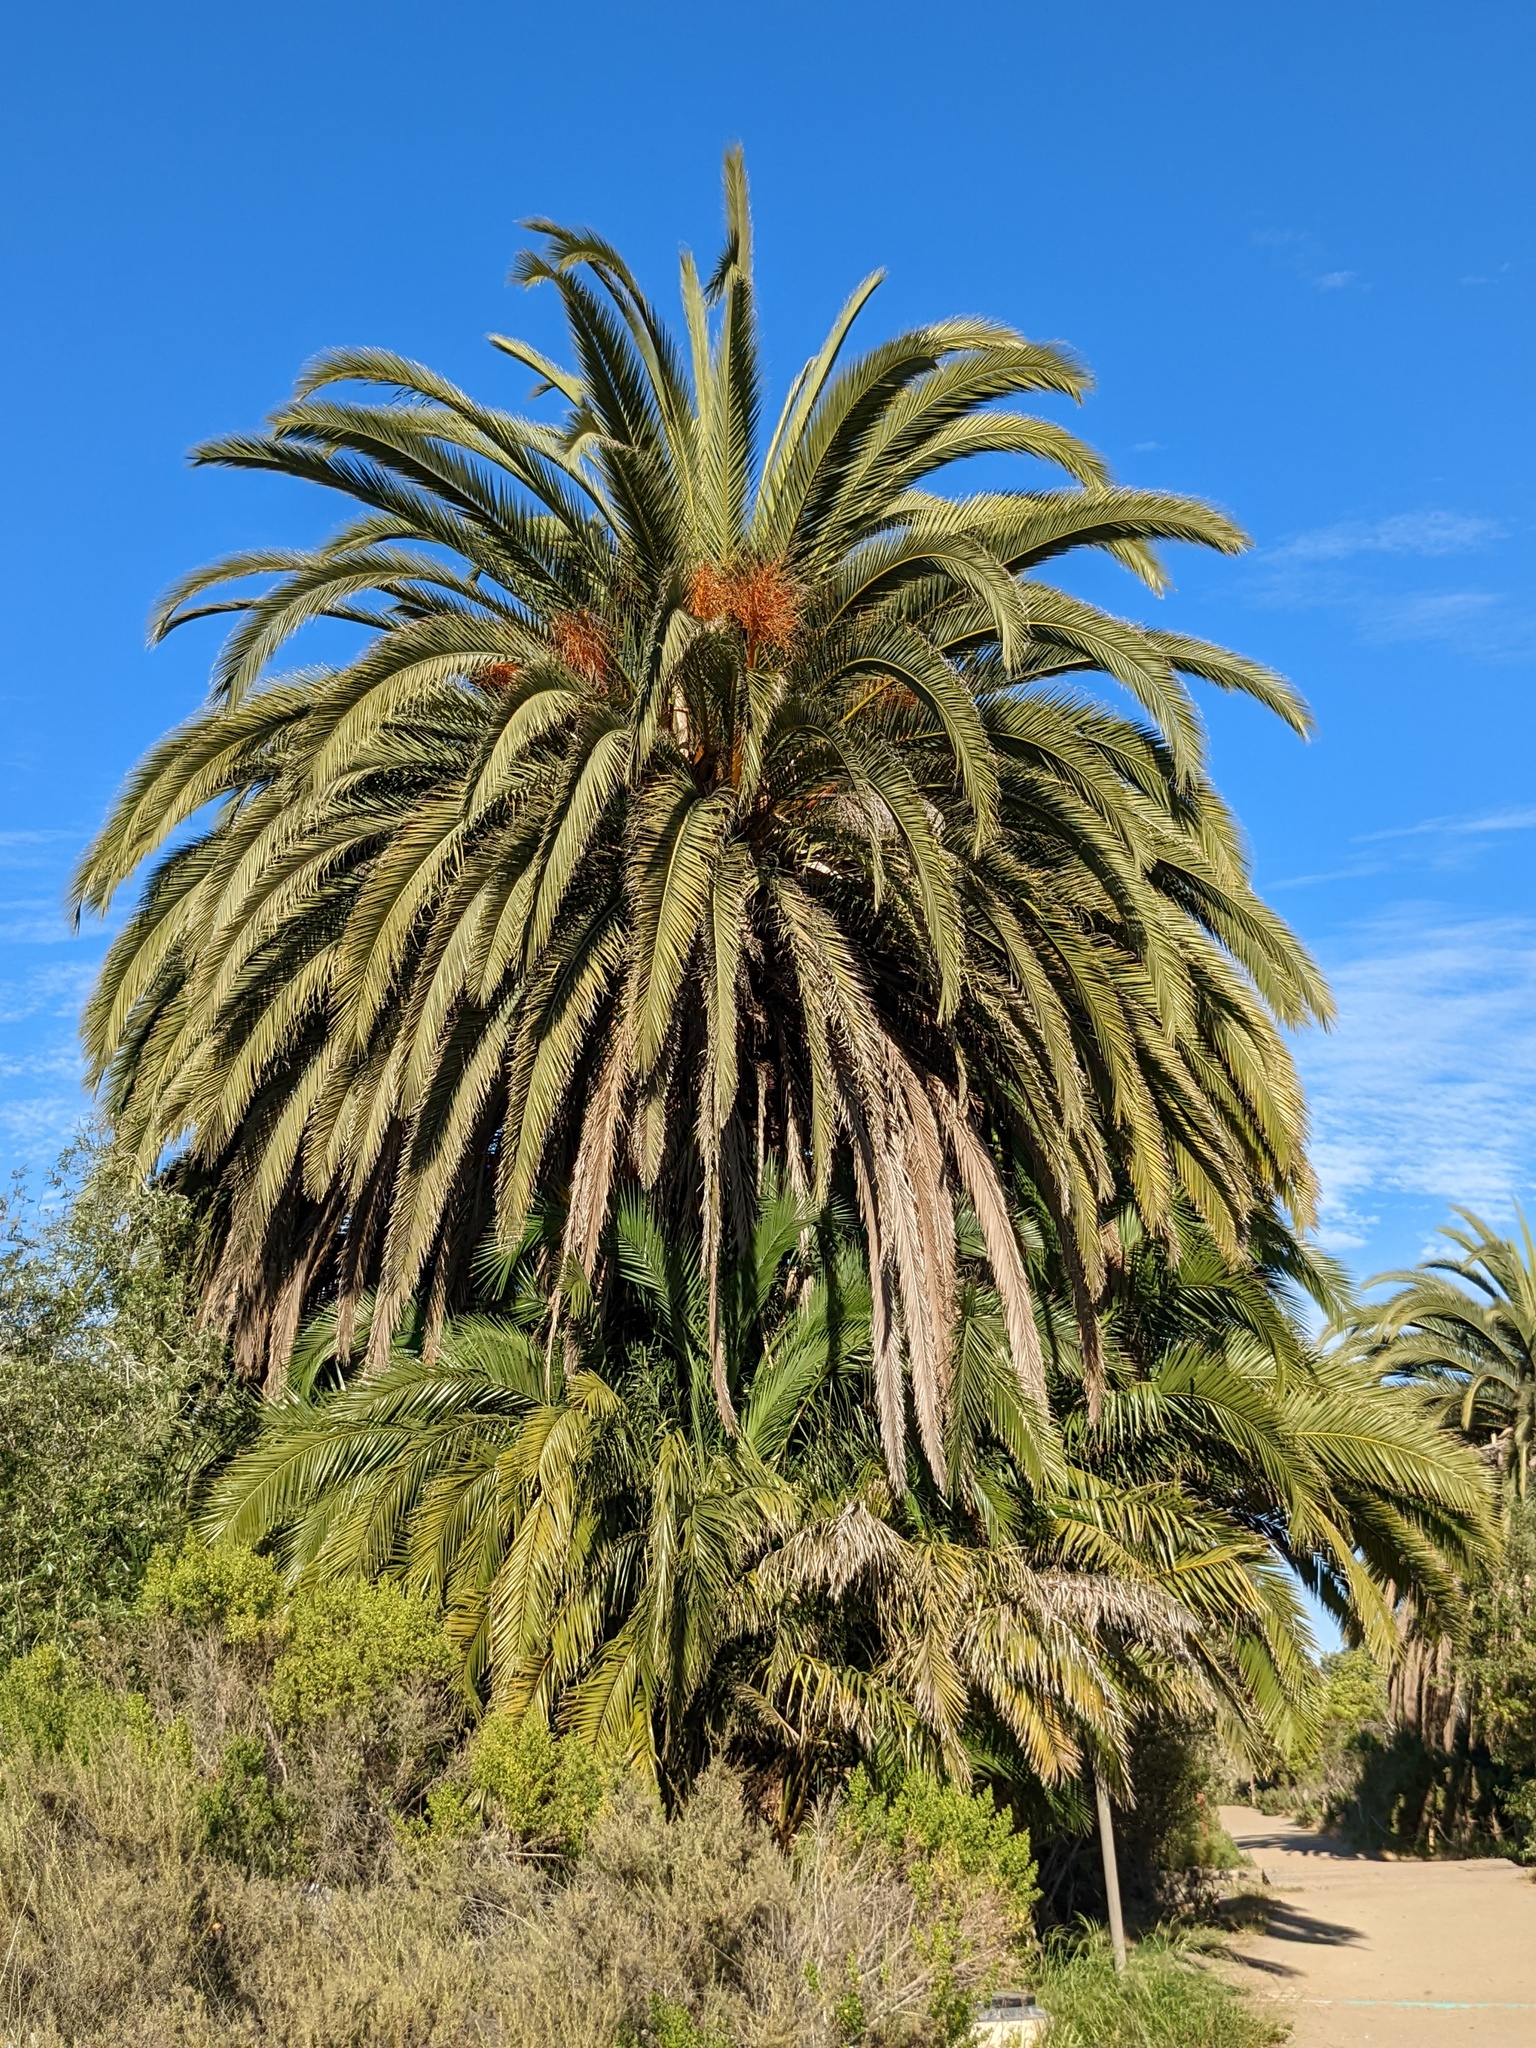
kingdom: Plantae
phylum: Tracheophyta
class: Liliopsida
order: Arecales
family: Arecaceae
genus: Phoenix
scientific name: Phoenix canariensis
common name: Canary island date palm
